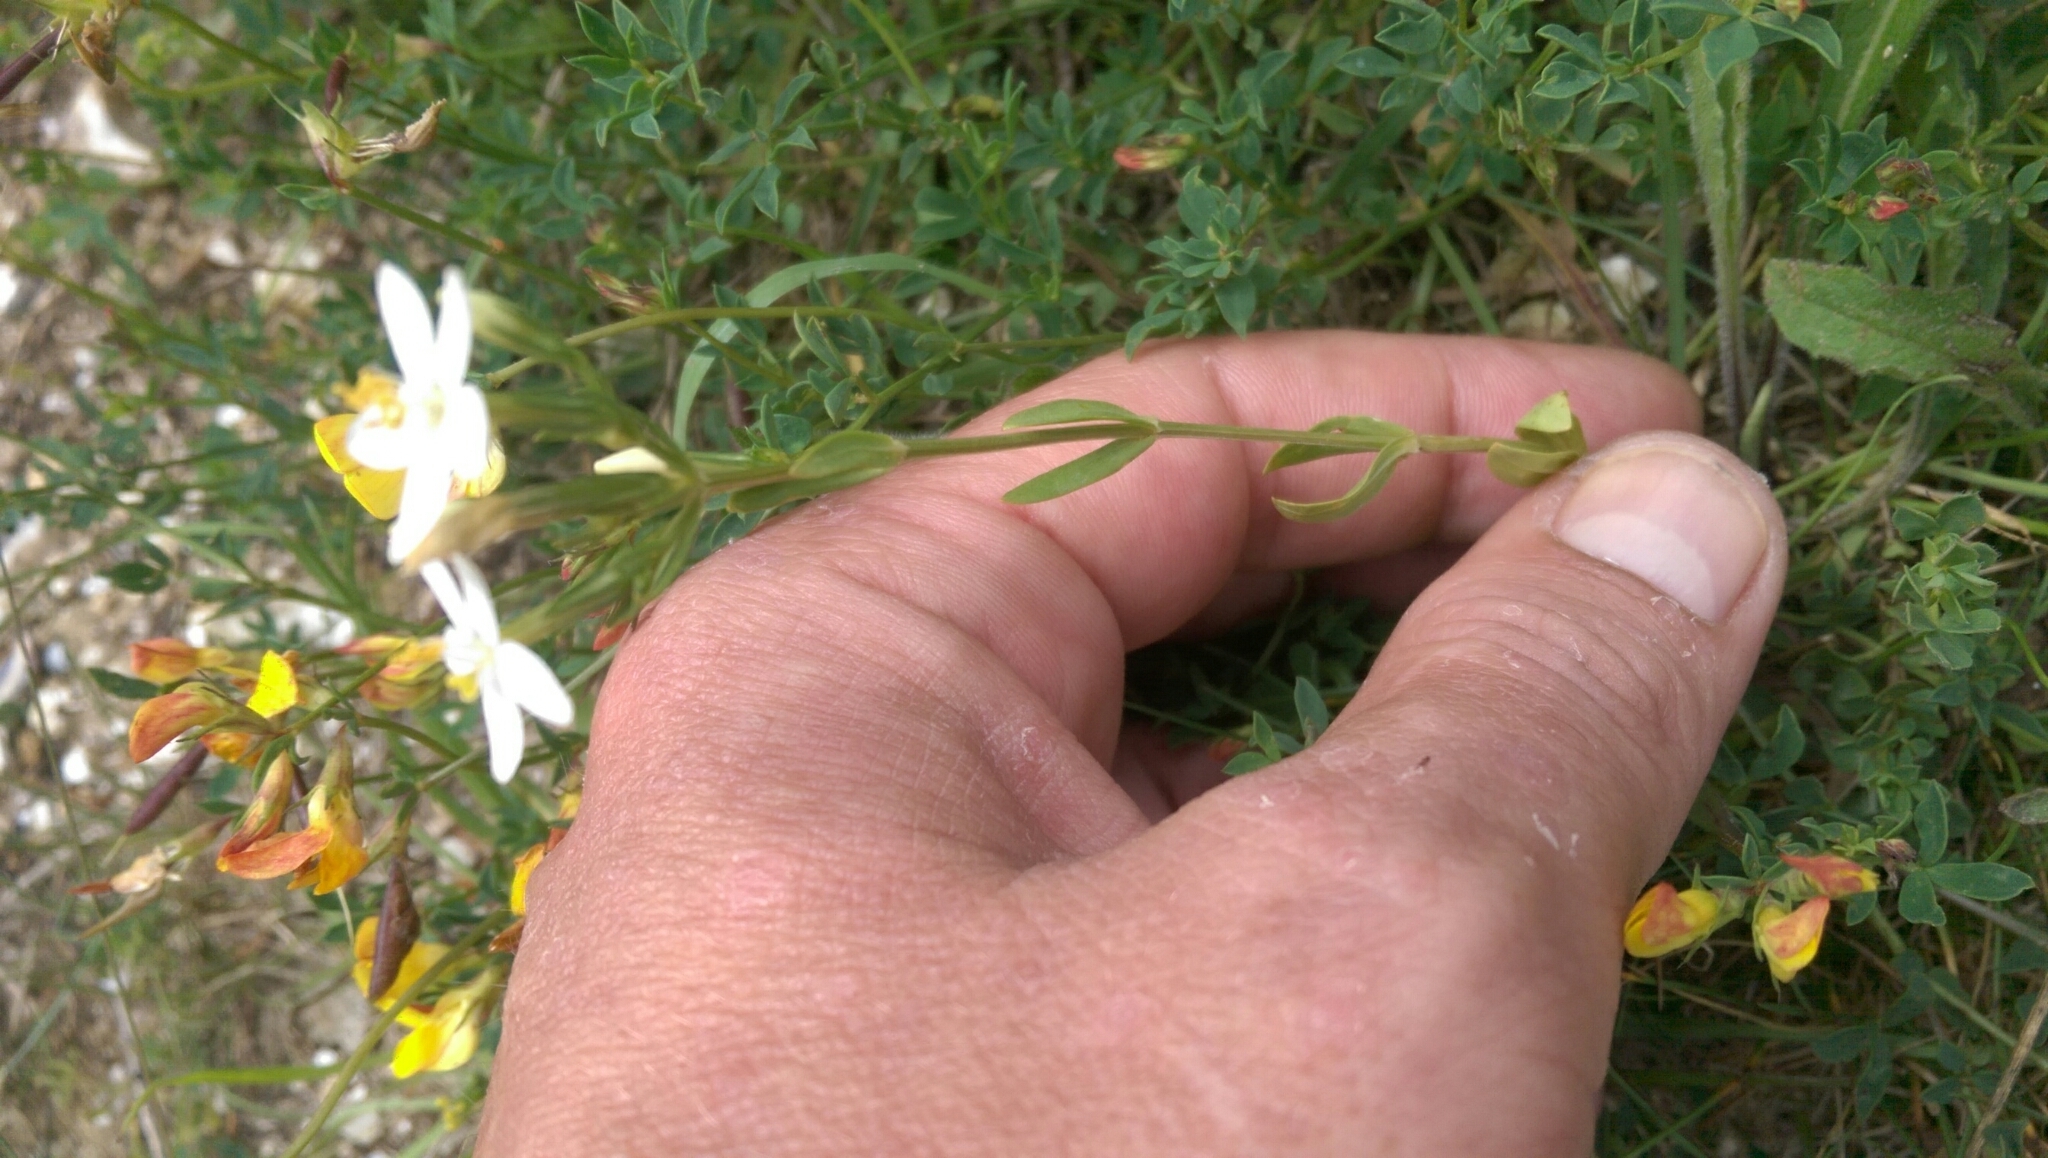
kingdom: Plantae
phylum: Tracheophyta
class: Magnoliopsida
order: Gentianales
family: Gentianaceae
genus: Centaurium
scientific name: Centaurium erythraea
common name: Common centaury
